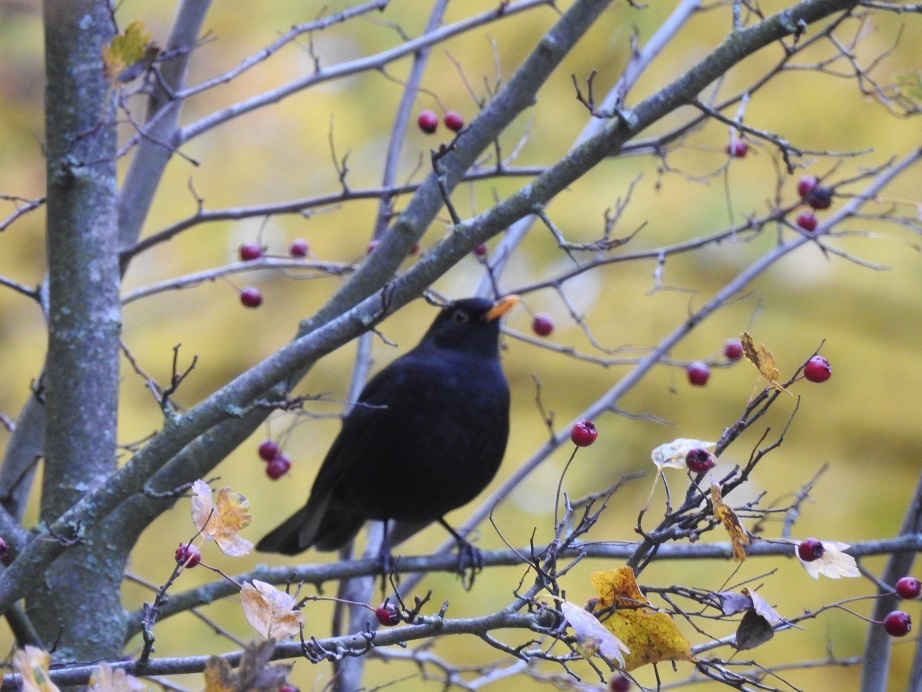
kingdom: Animalia
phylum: Chordata
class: Aves
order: Passeriformes
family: Turdidae
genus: Turdus
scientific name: Turdus merula
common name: Common blackbird
